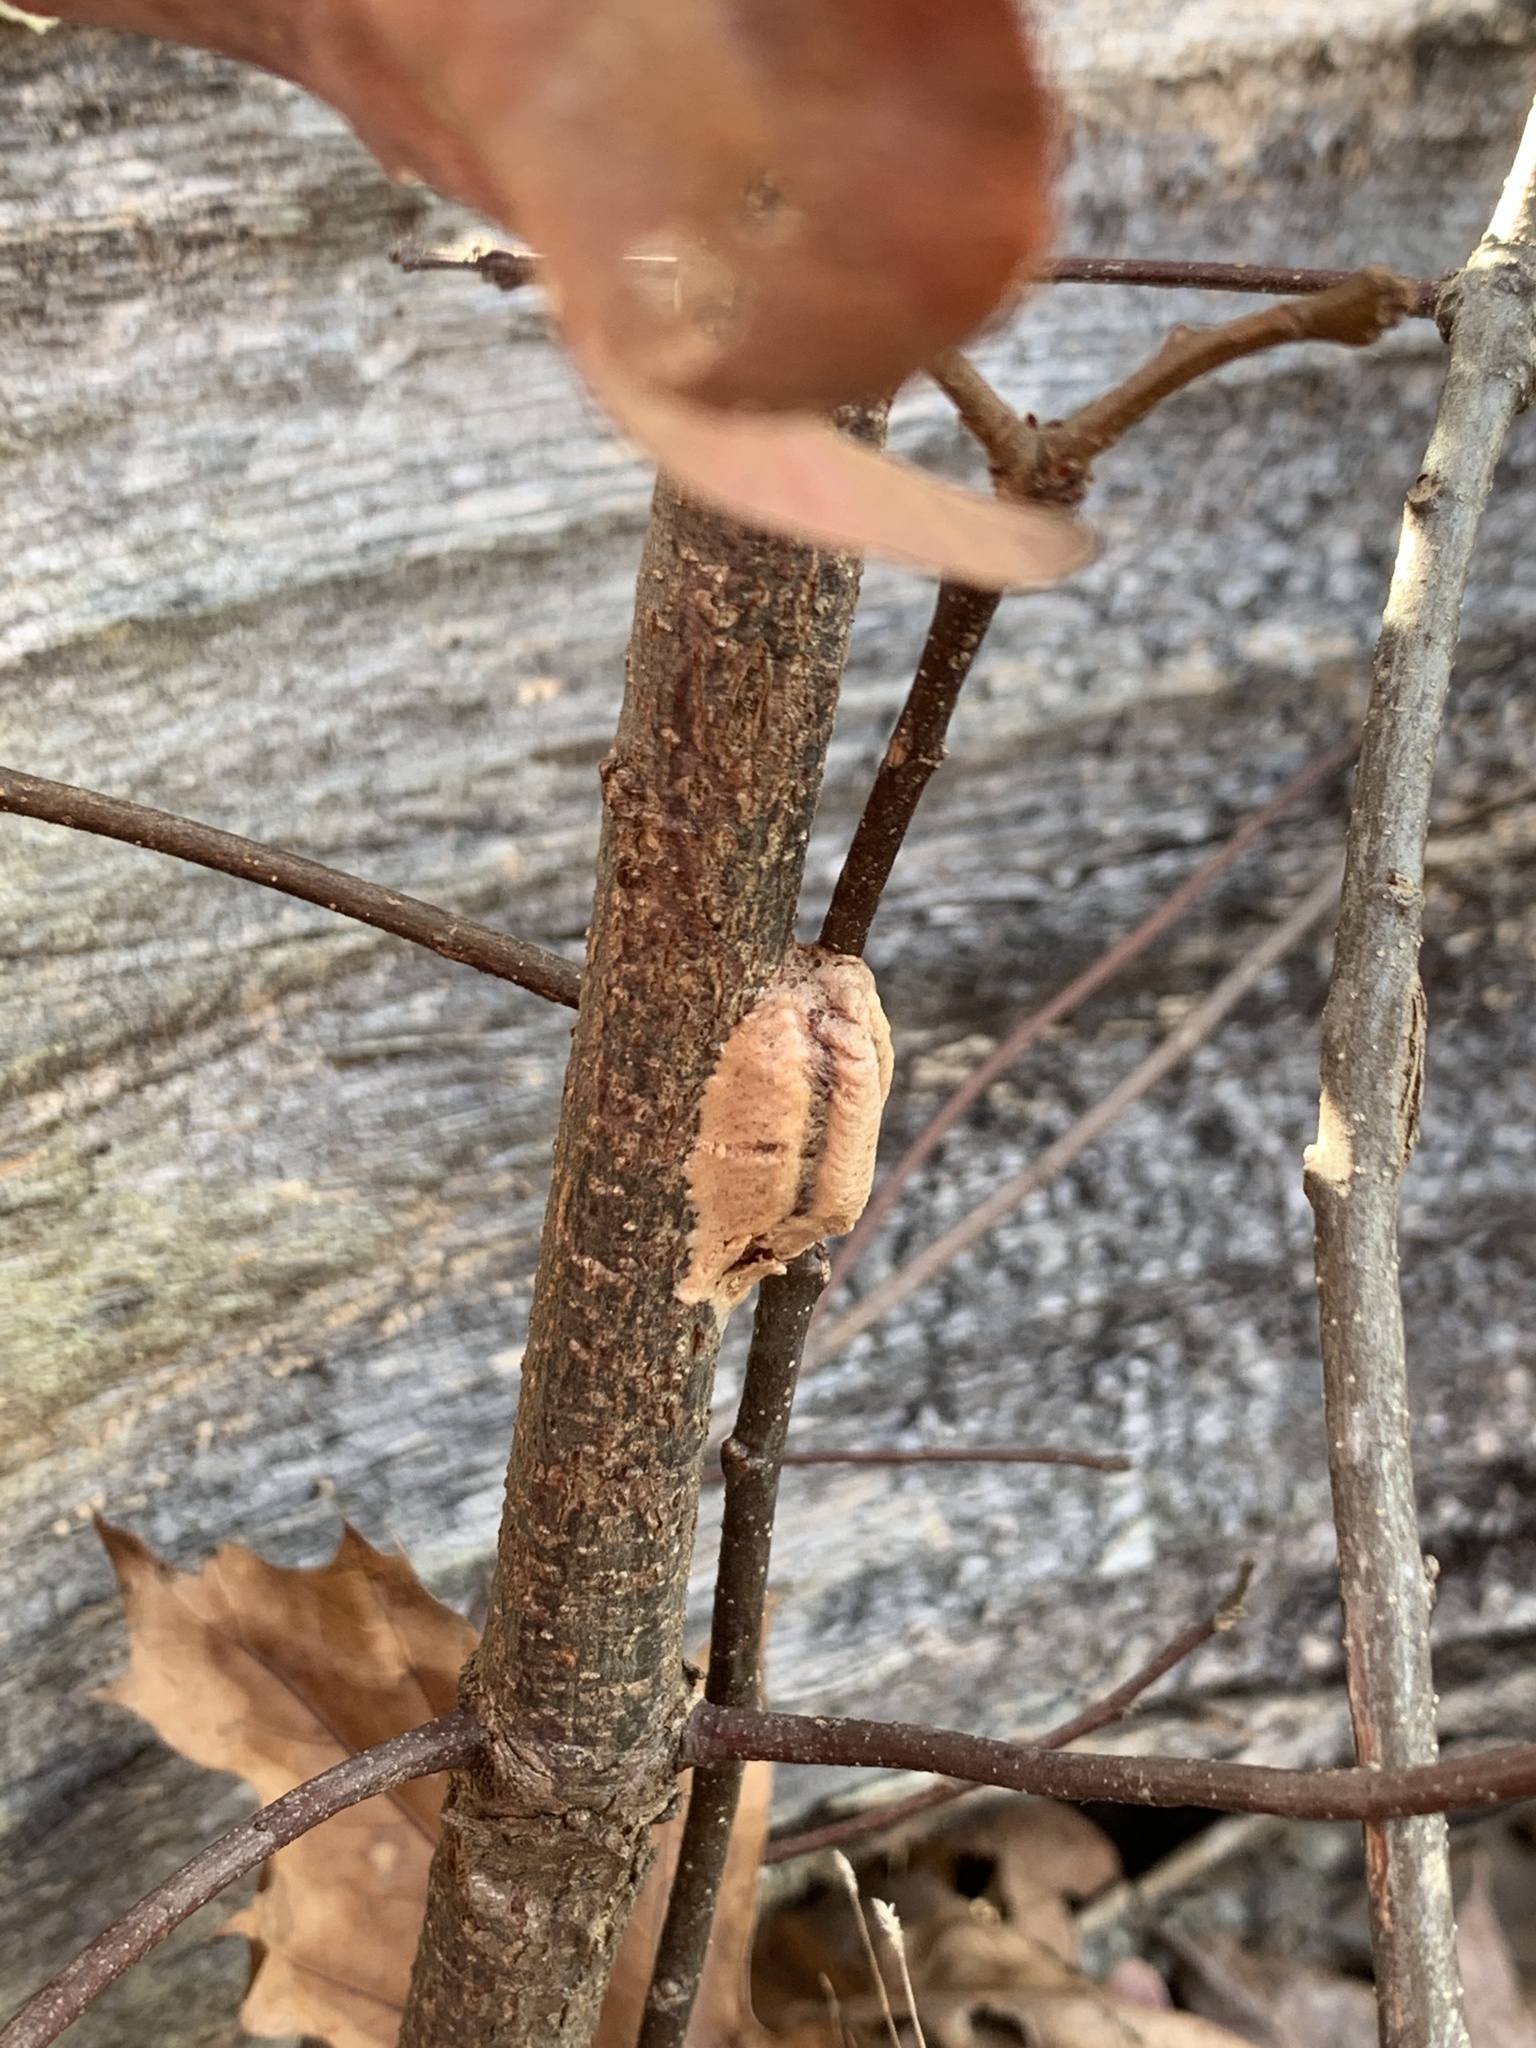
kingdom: Animalia
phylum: Arthropoda
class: Insecta
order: Mantodea
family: Mantidae
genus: Stagmomantis
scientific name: Stagmomantis carolina
